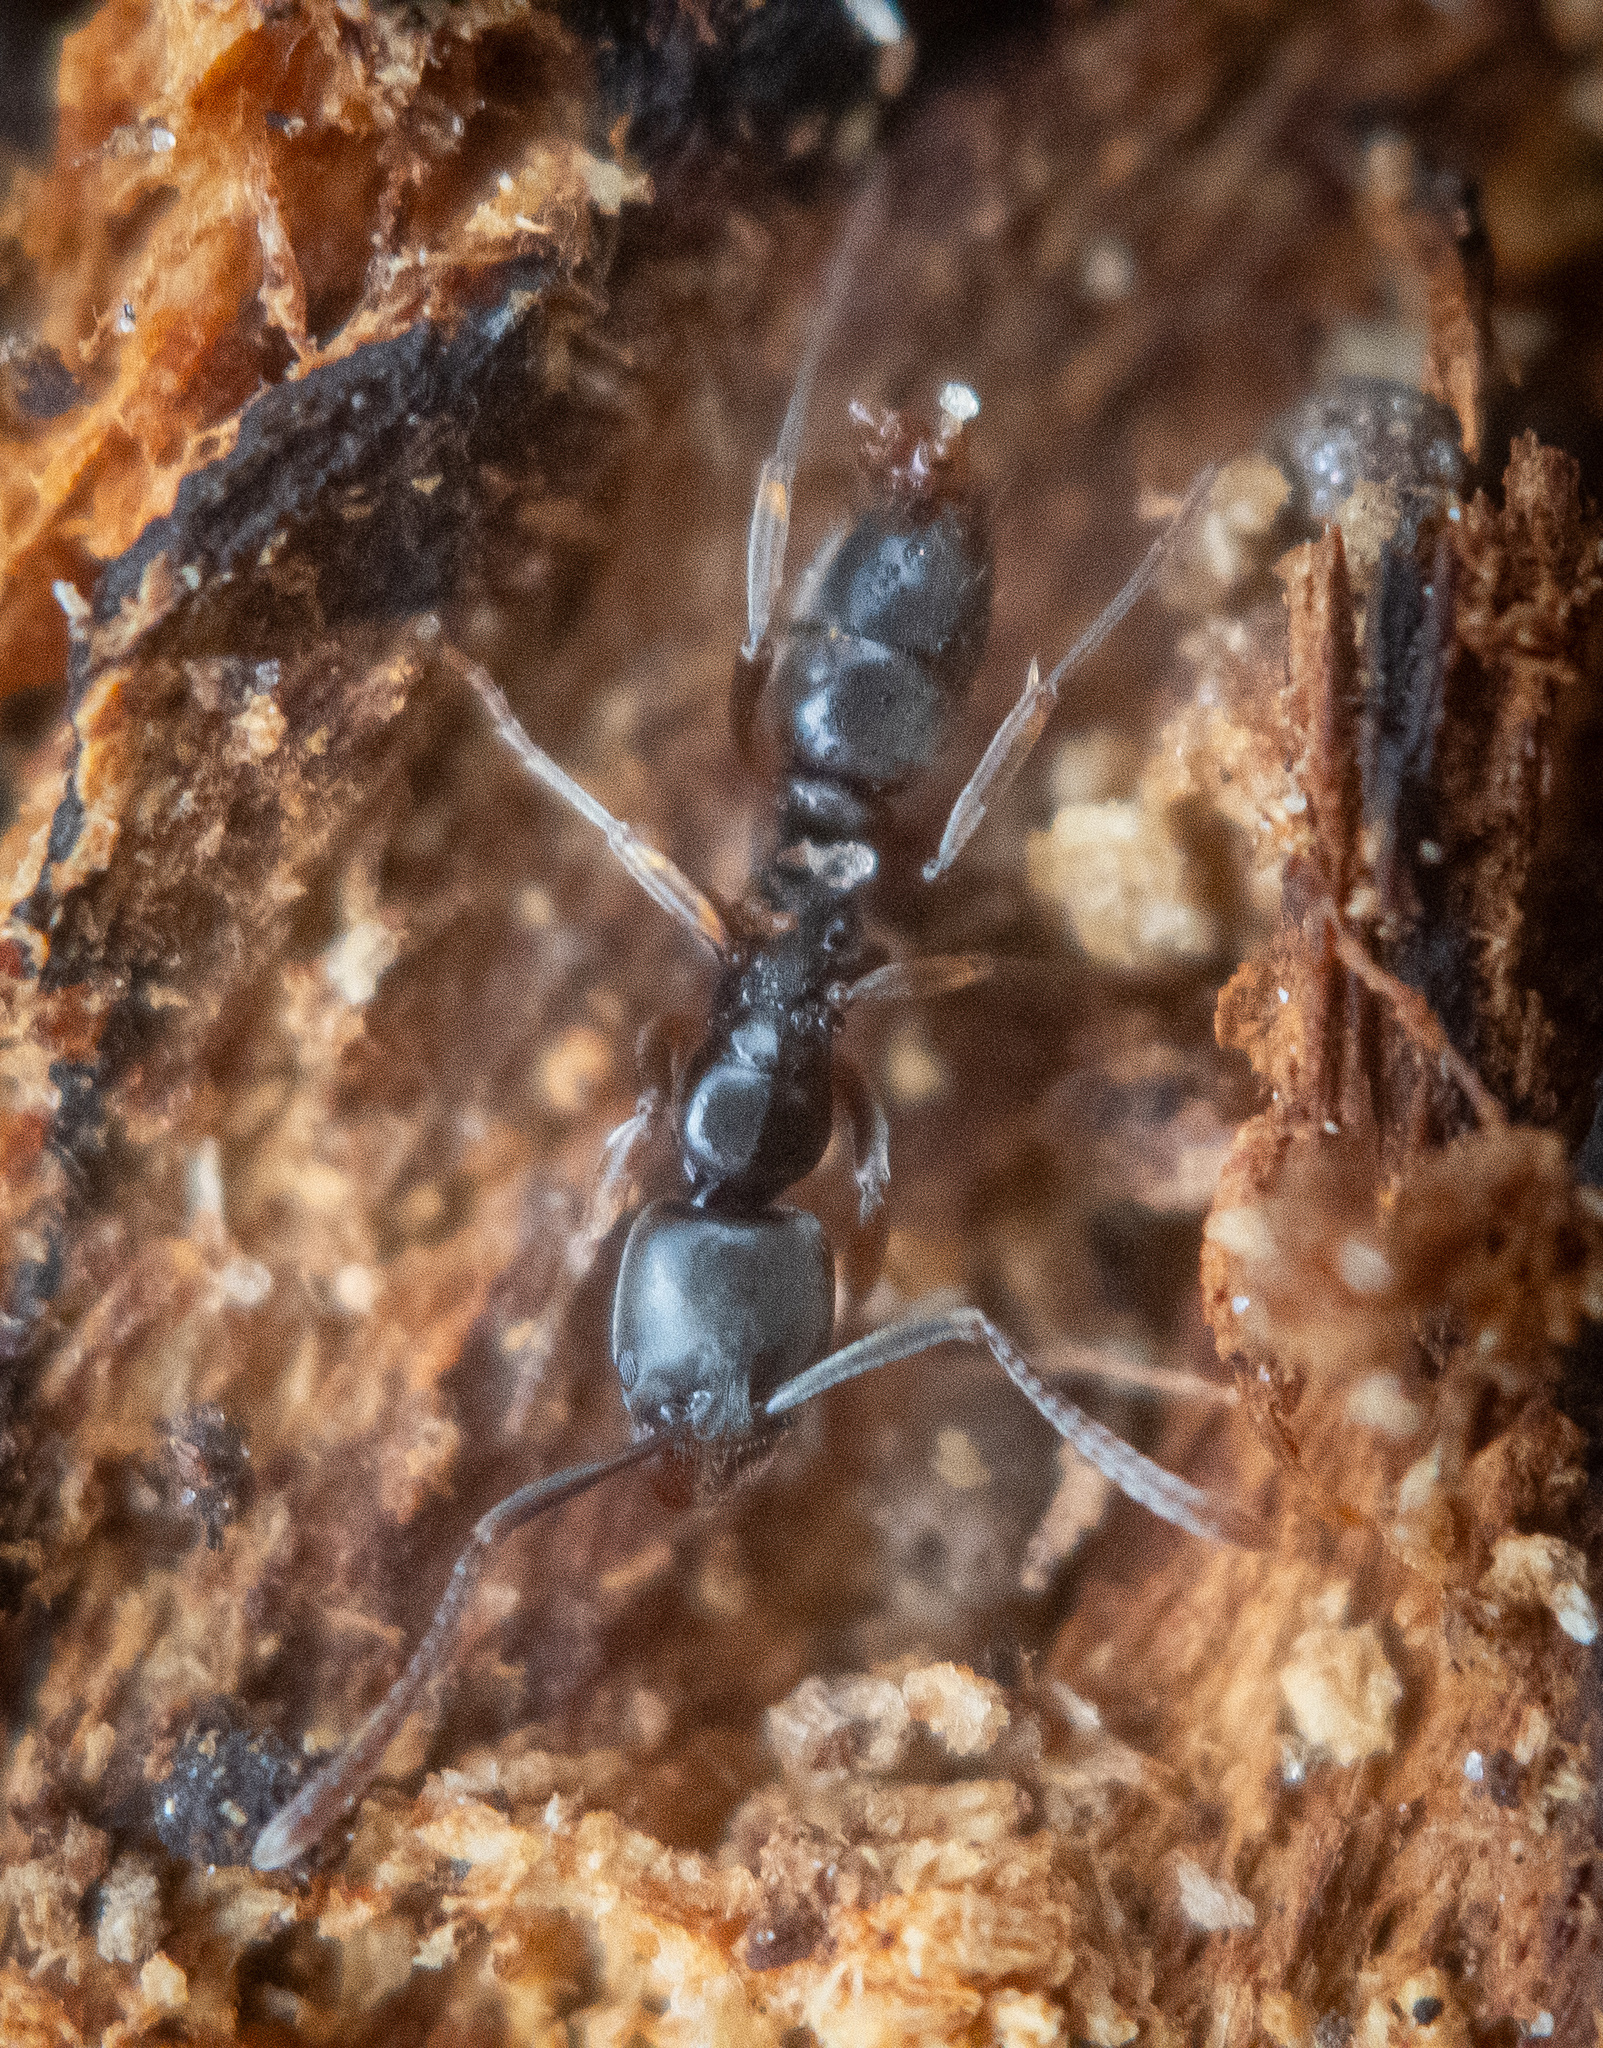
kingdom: Animalia
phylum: Arthropoda
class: Insecta
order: Hymenoptera
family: Formicidae
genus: Pachycondyla
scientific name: Pachycondyla chinensis
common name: Asian needle ant
